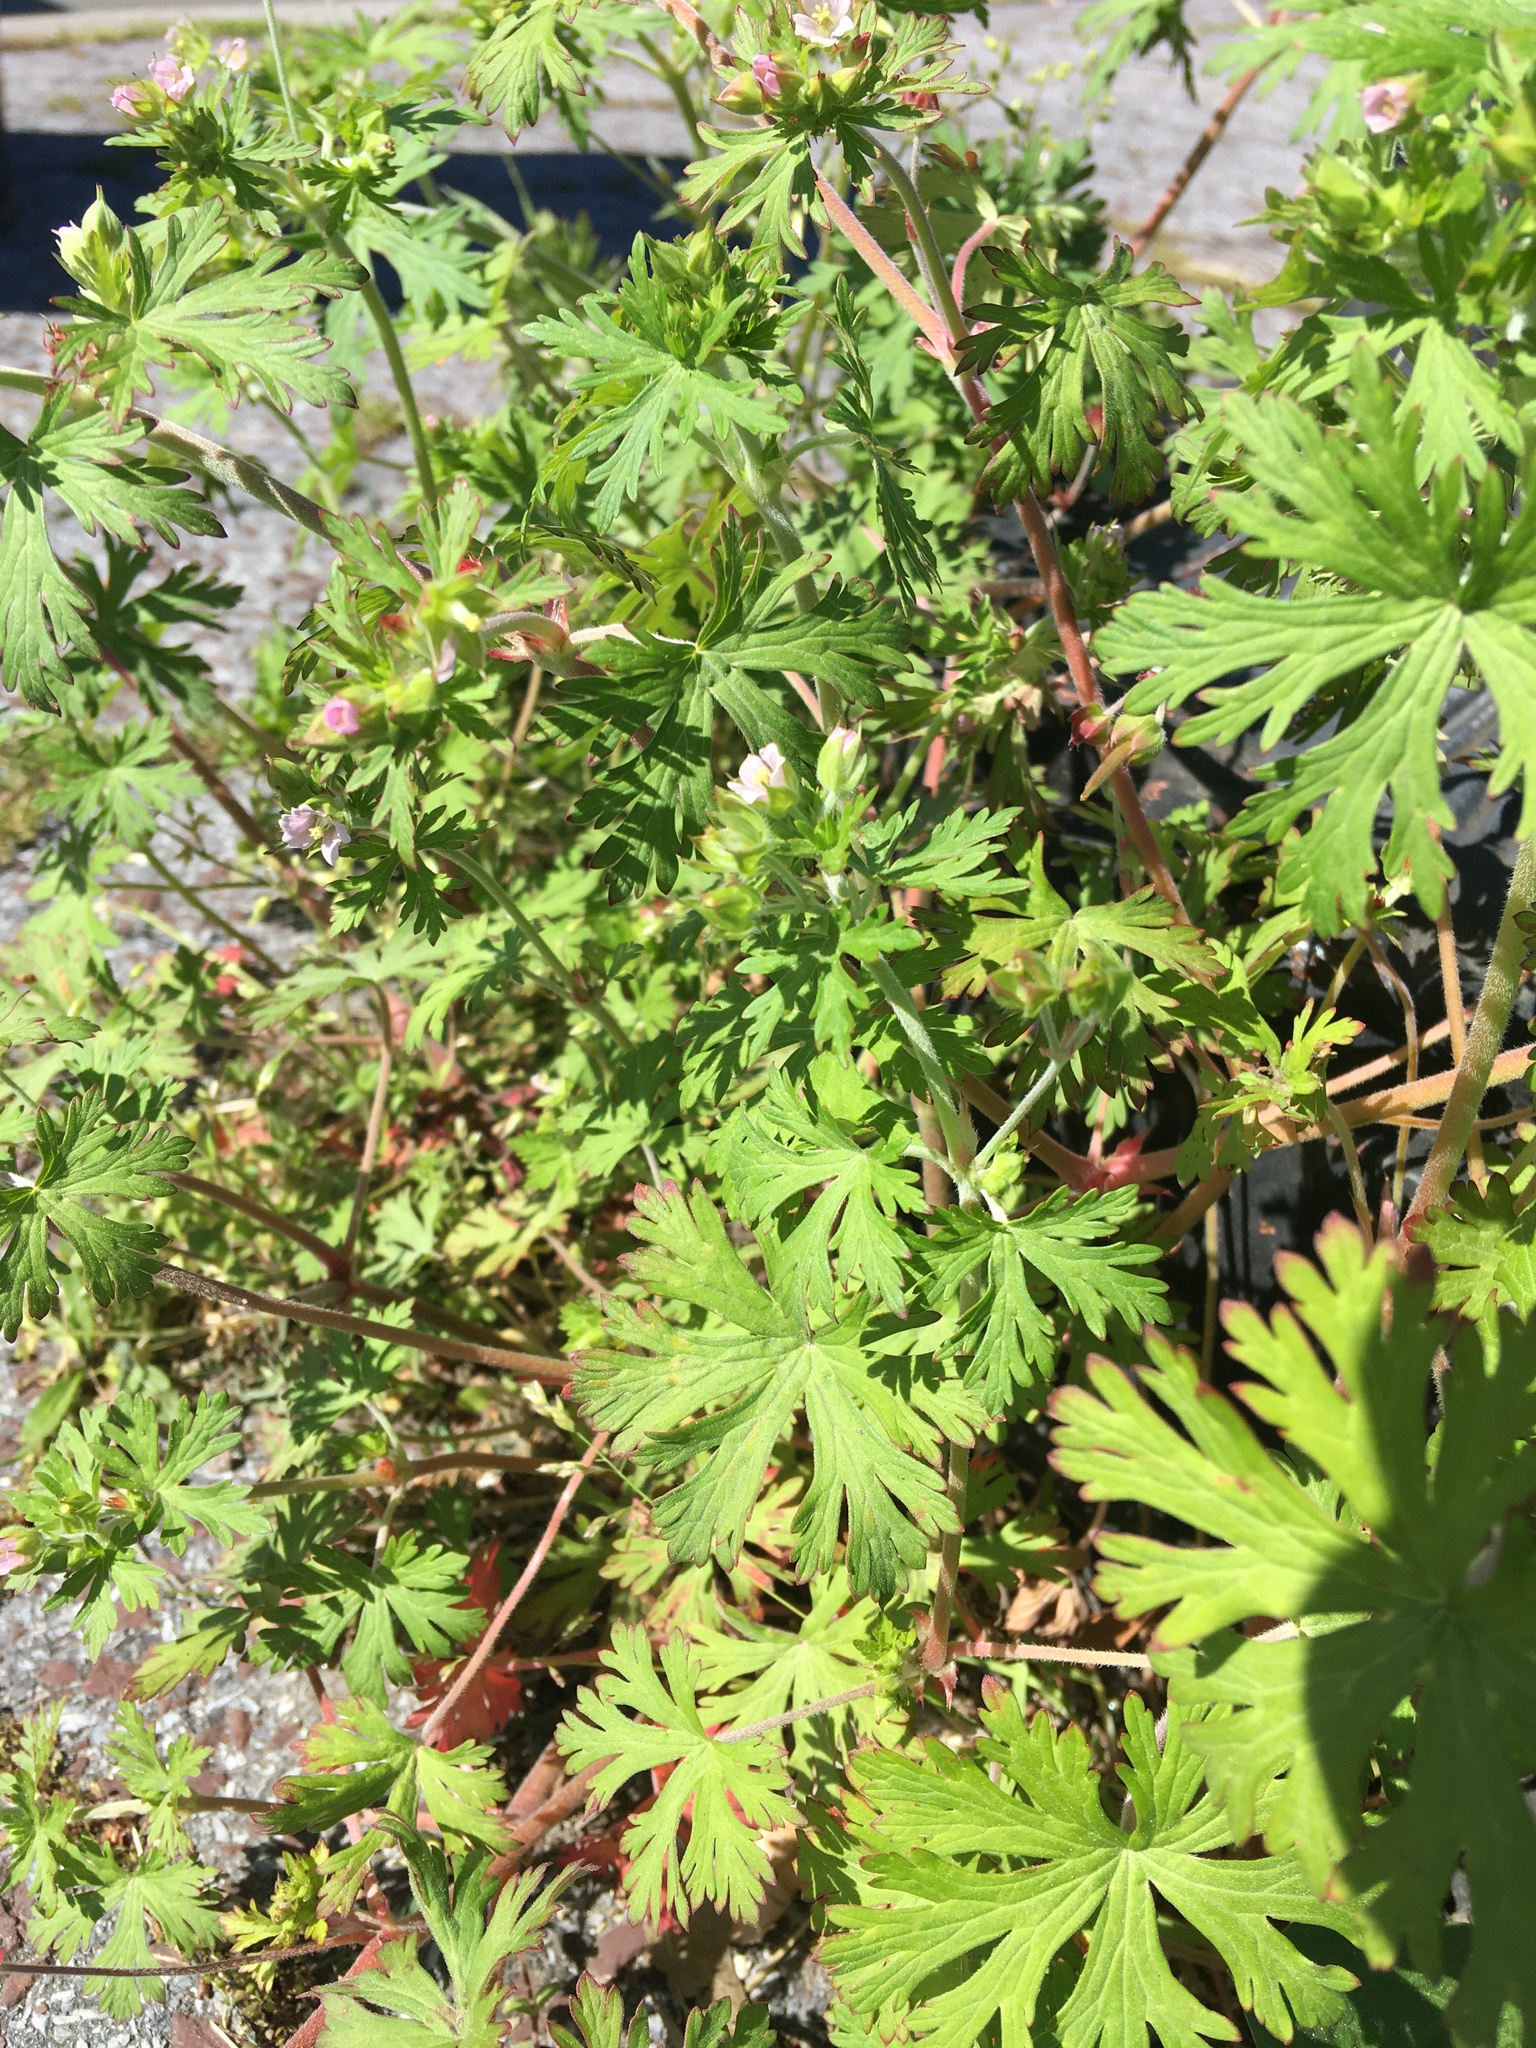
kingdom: Plantae
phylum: Tracheophyta
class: Magnoliopsida
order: Geraniales
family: Geraniaceae
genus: Geranium
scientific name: Geranium carolinianum
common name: Carolina crane's-bill
